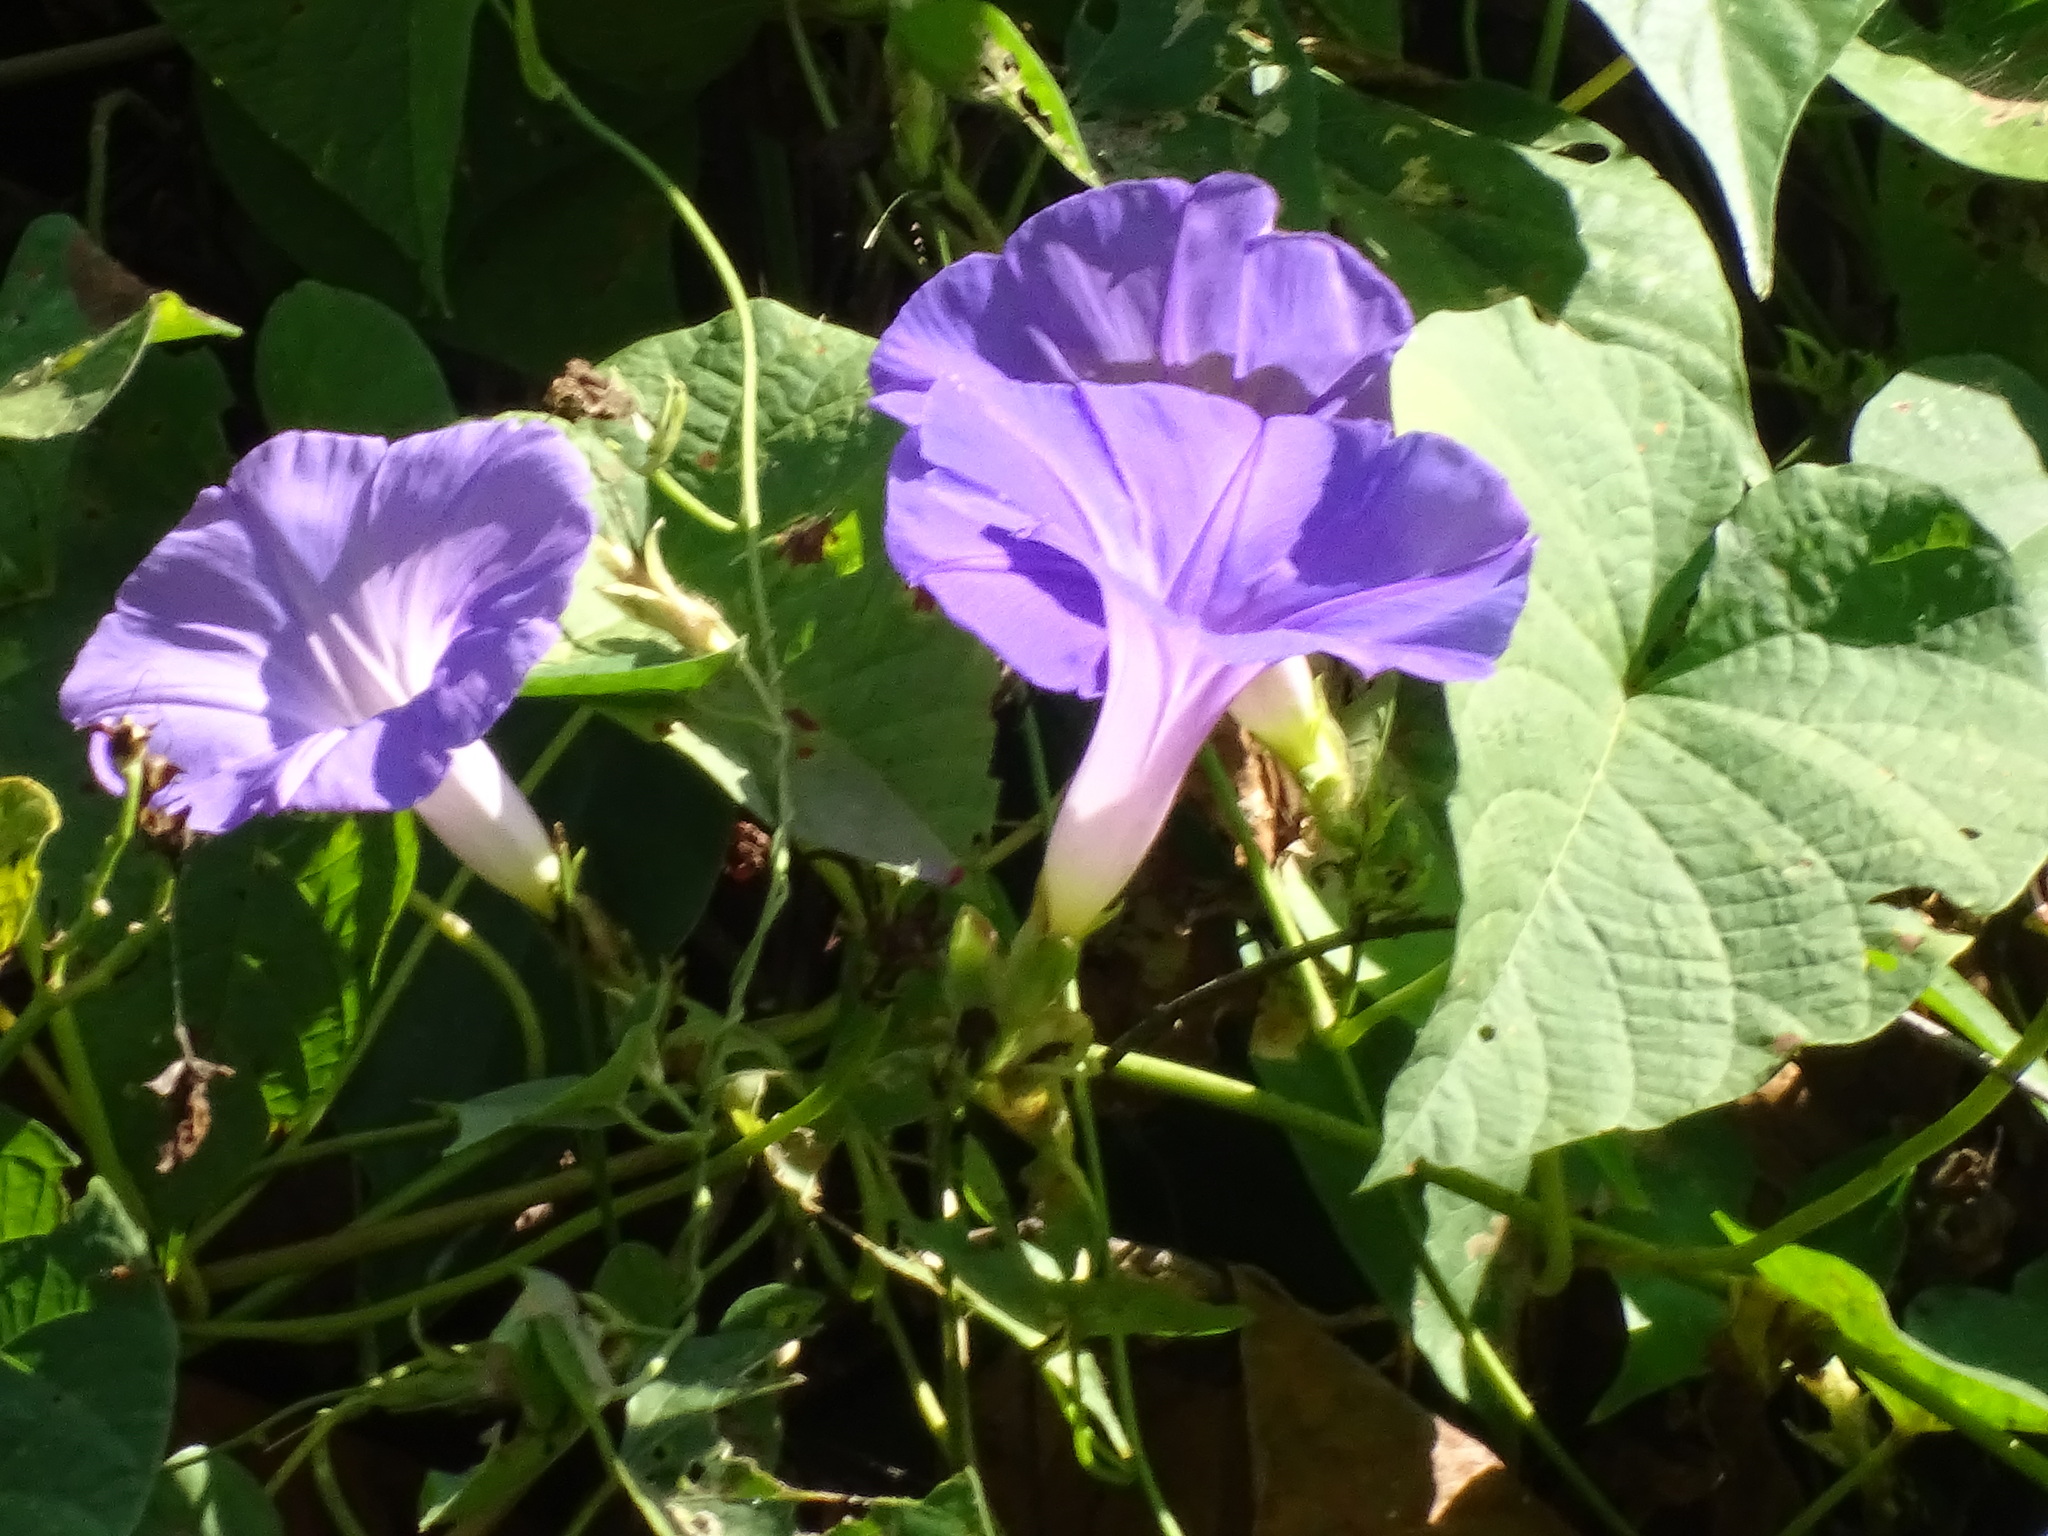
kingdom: Plantae
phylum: Tracheophyta
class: Magnoliopsida
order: Solanales
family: Convolvulaceae
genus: Ipomoea
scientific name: Ipomoea mitchelliae
